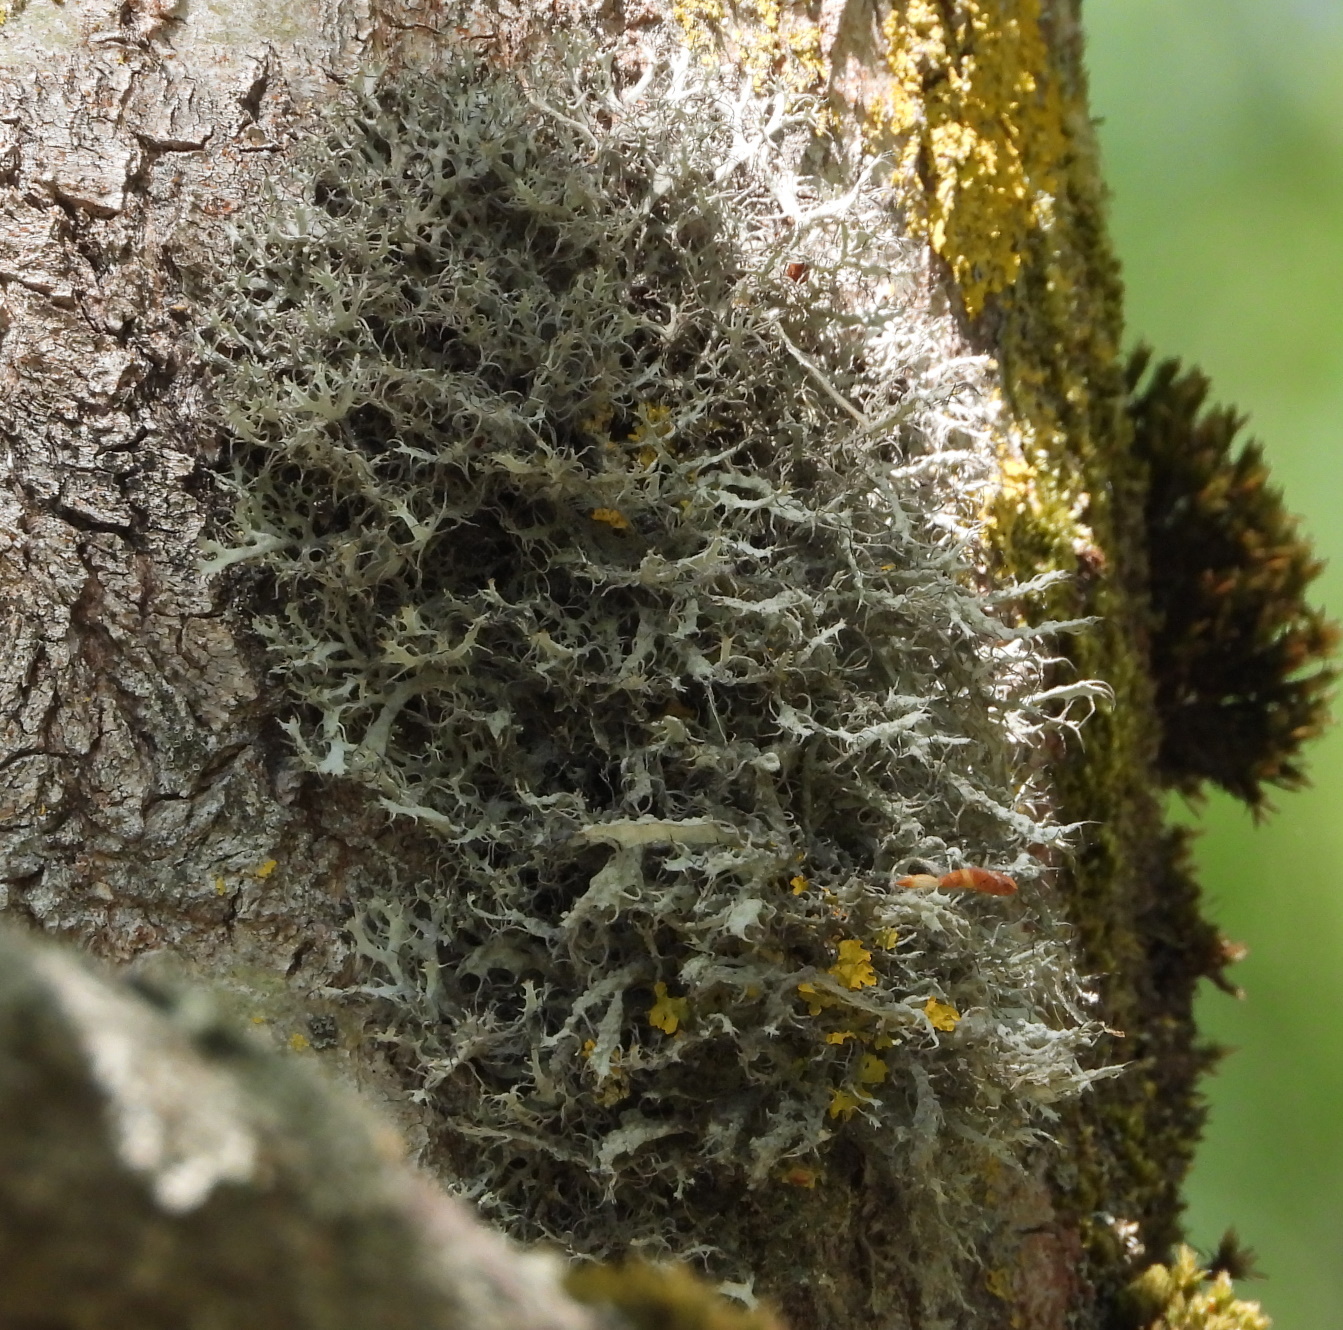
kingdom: Fungi
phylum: Ascomycota
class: Lecanoromycetes
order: Caliciales
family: Physciaceae
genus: Anaptychia
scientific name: Anaptychia ciliaris
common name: Great ciliated lichen
